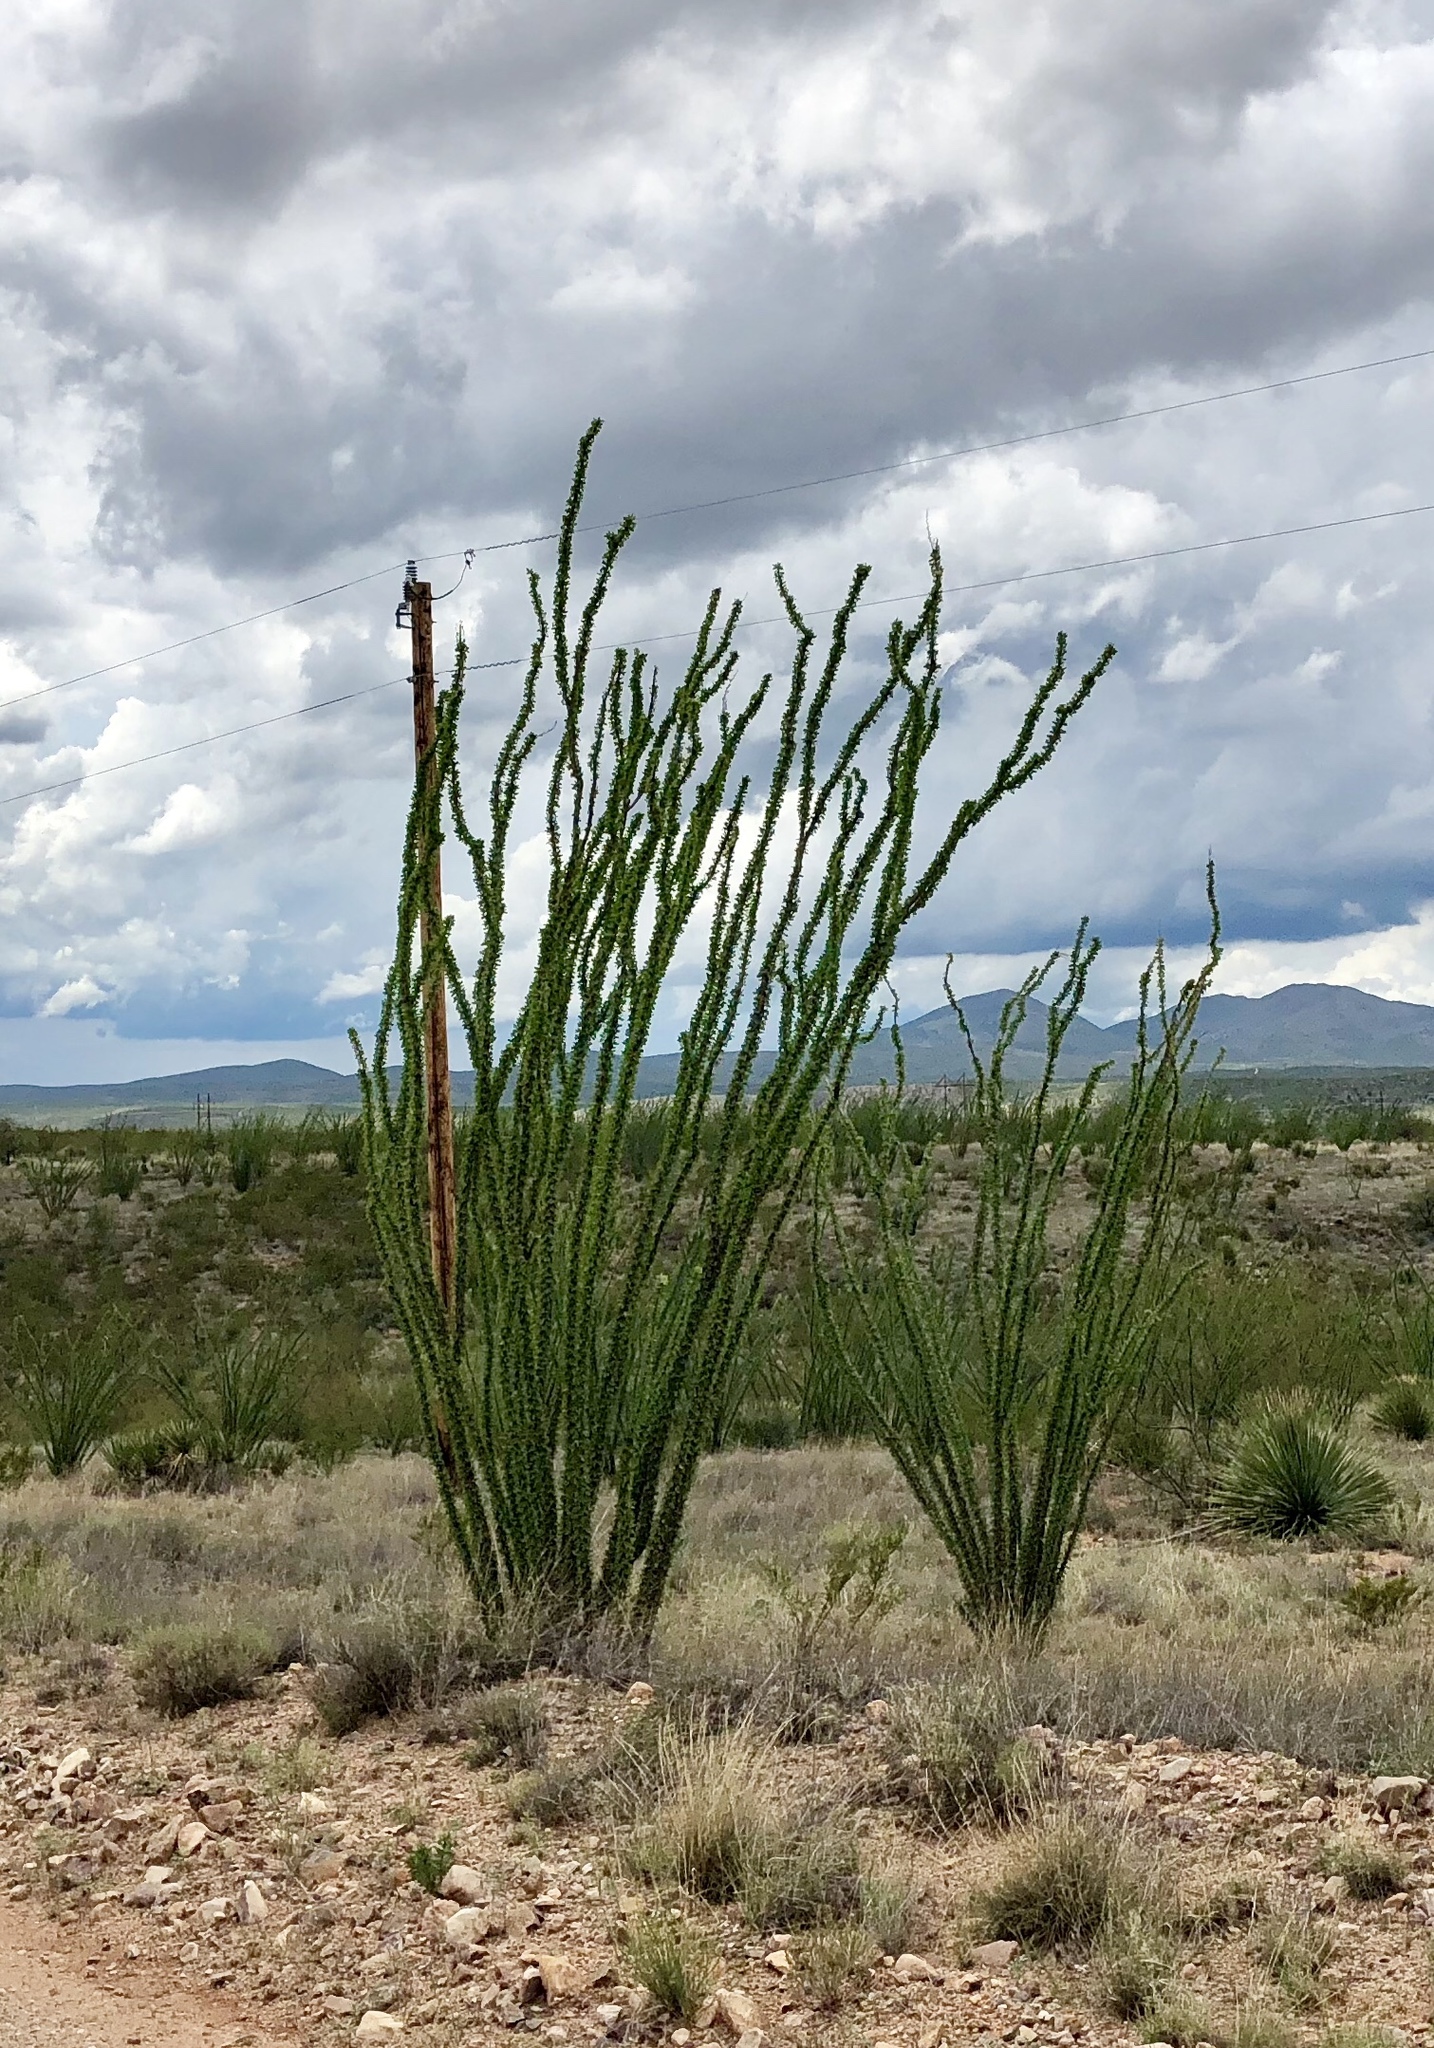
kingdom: Plantae
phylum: Tracheophyta
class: Magnoliopsida
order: Ericales
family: Fouquieriaceae
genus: Fouquieria
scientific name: Fouquieria splendens
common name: Vine-cactus
